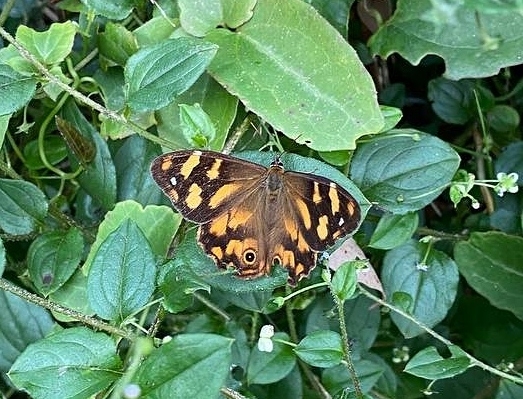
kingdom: Animalia
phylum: Arthropoda
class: Insecta
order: Lepidoptera
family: Nymphalidae
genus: Heteronympha
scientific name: Heteronympha banksii
